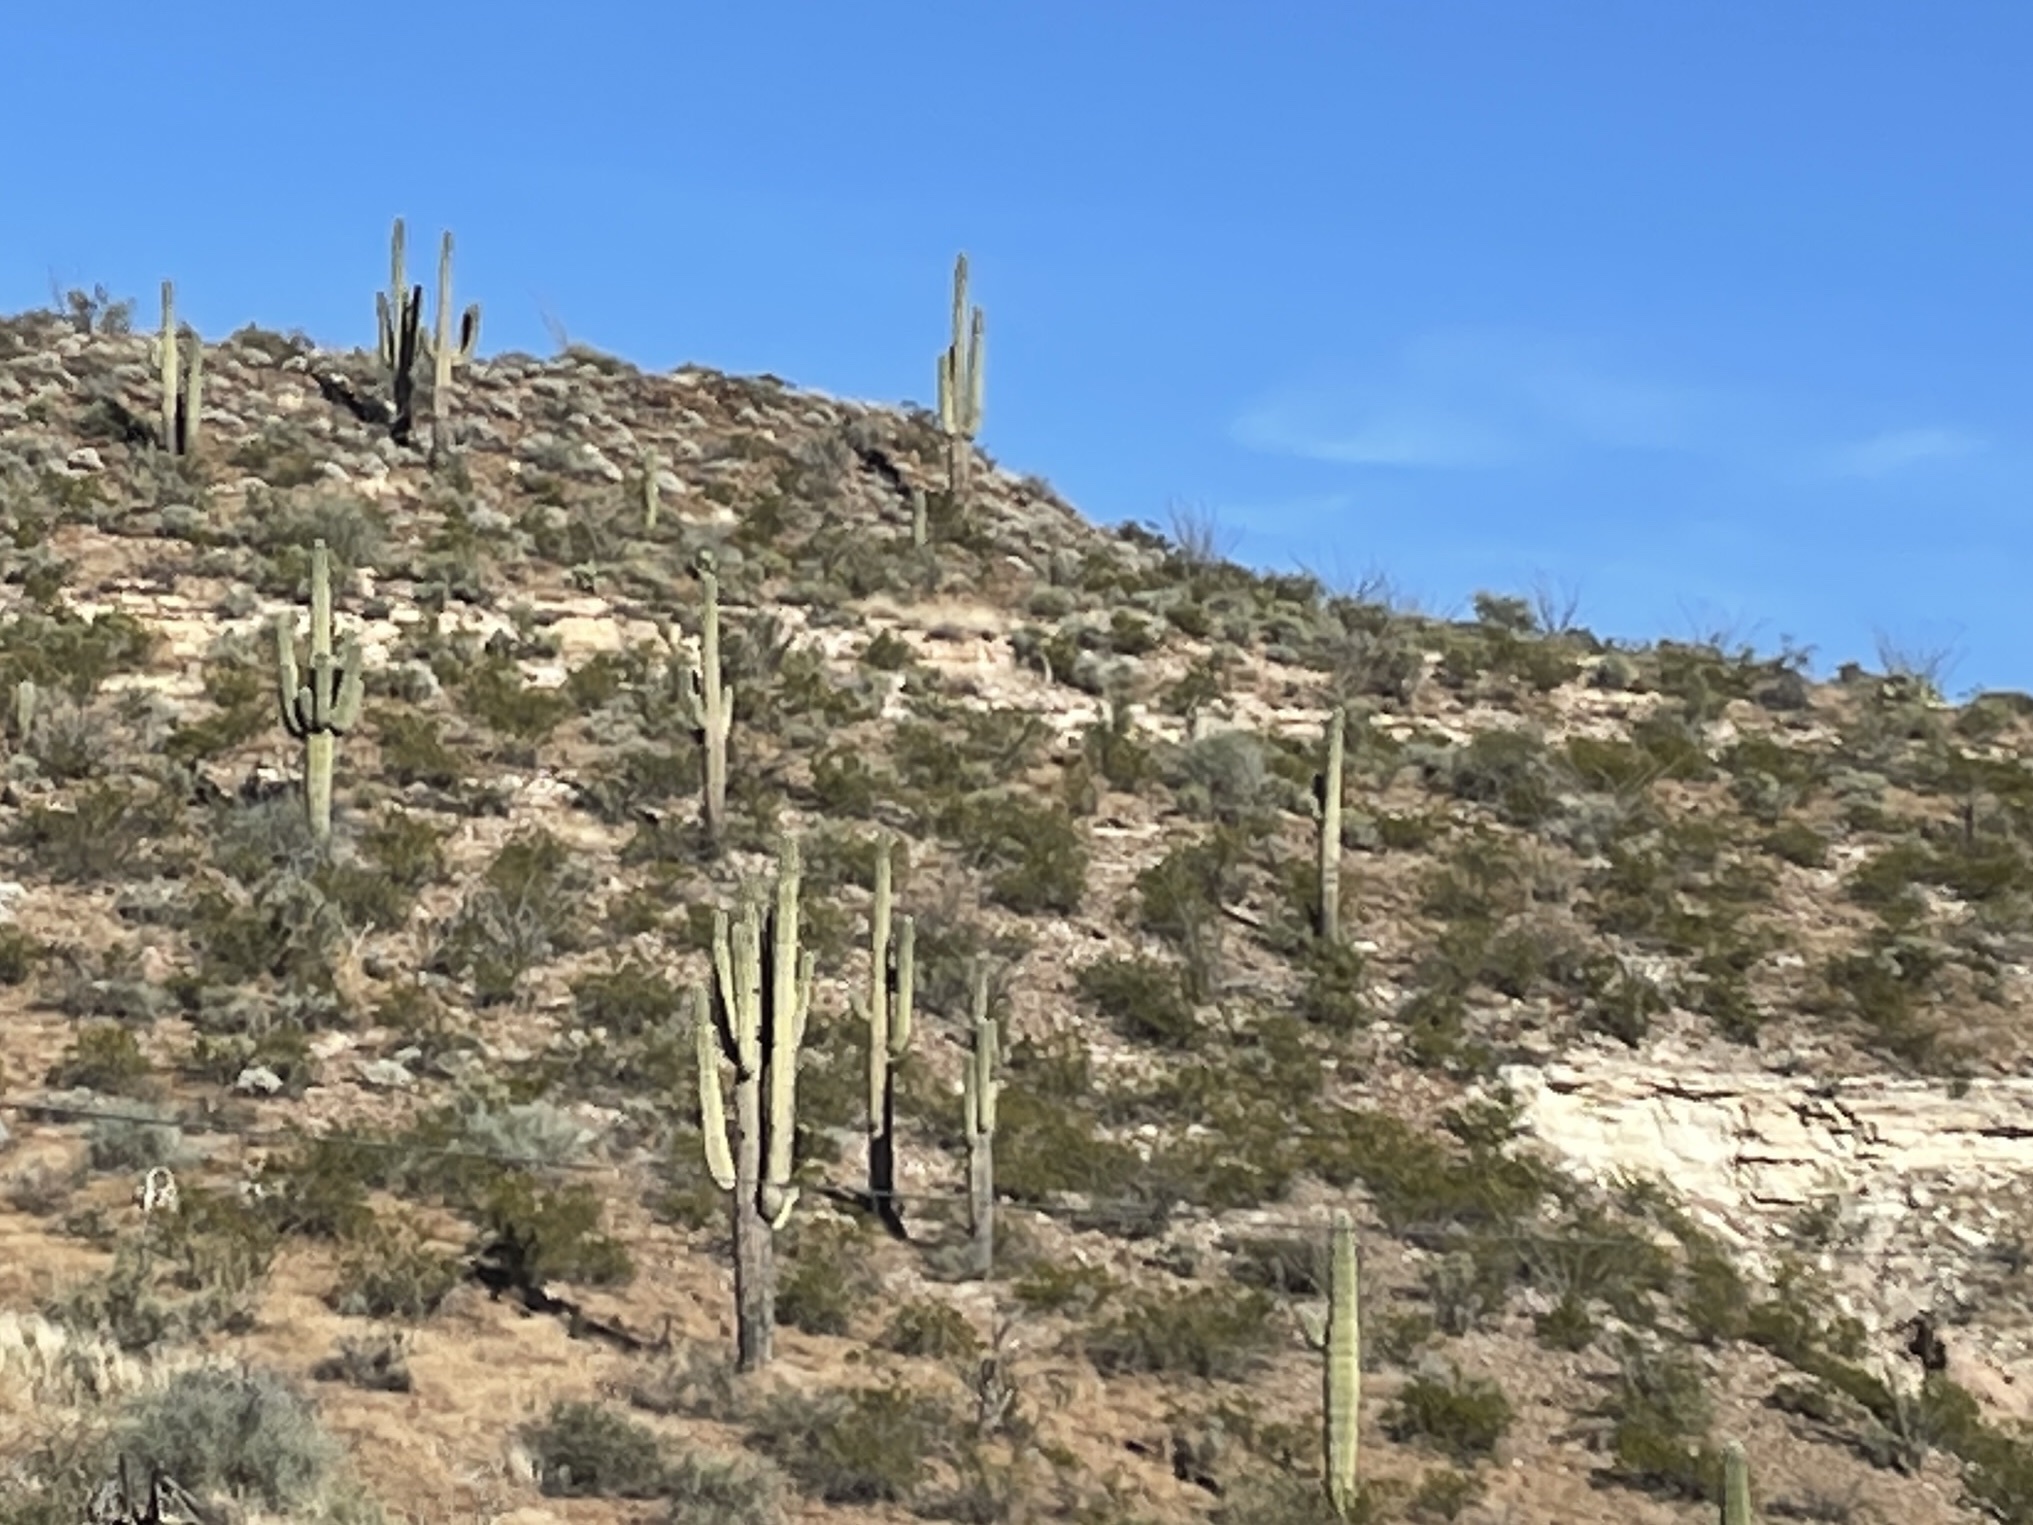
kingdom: Plantae
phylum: Tracheophyta
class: Magnoliopsida
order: Caryophyllales
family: Cactaceae
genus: Carnegiea
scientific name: Carnegiea gigantea
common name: Saguaro
